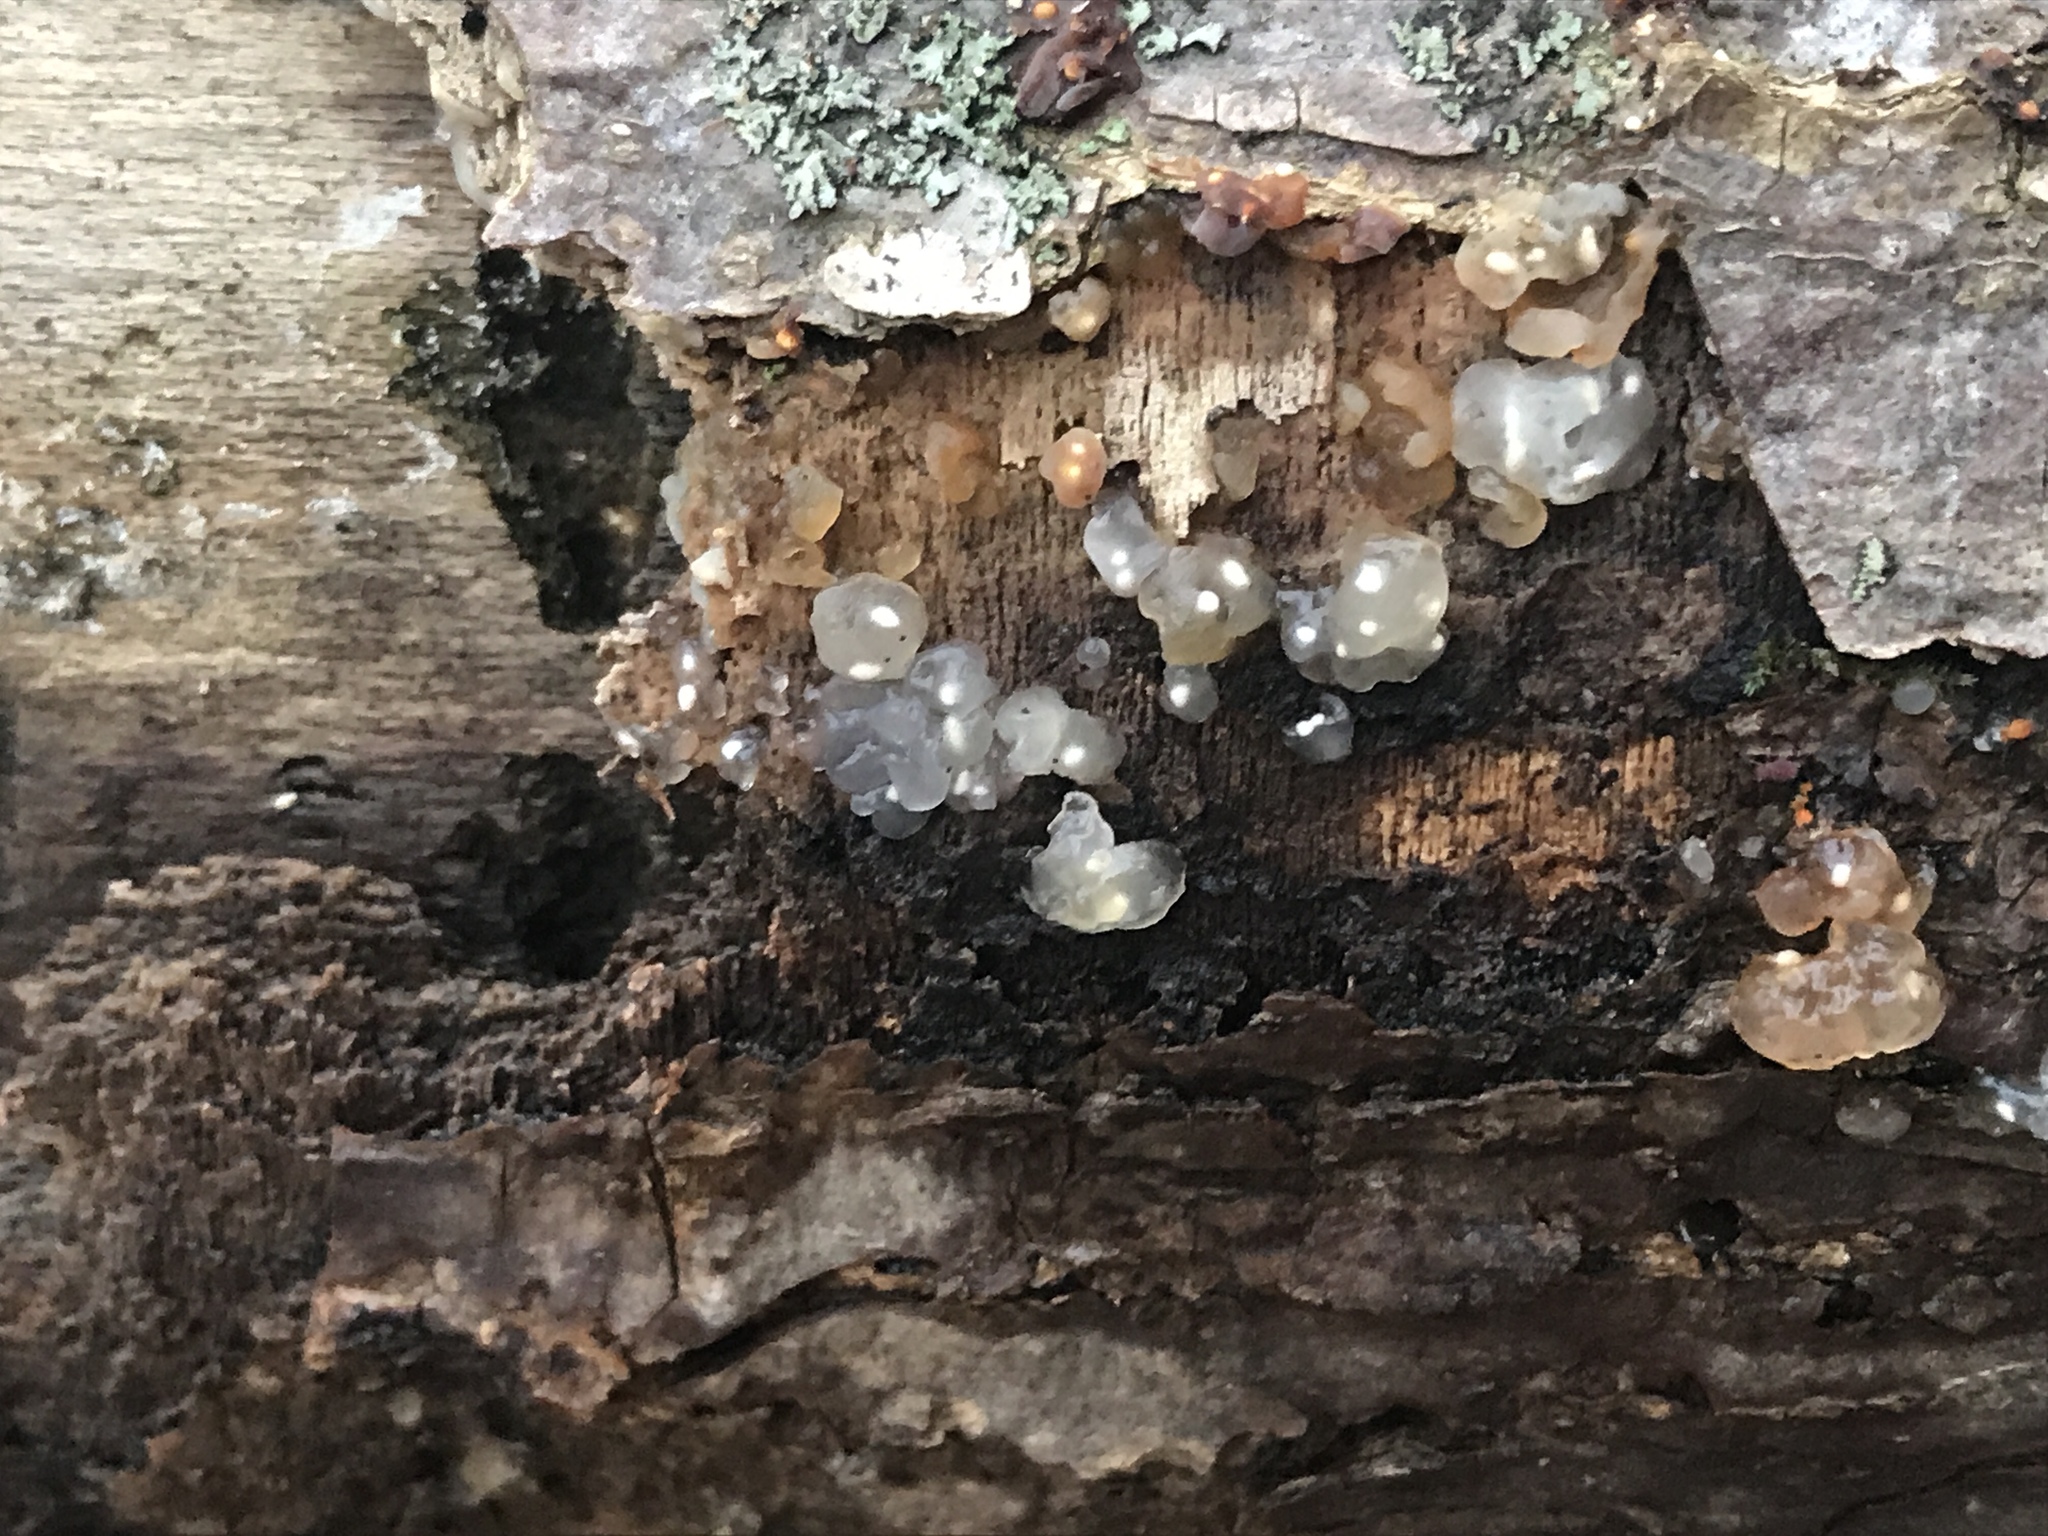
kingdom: Fungi
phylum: Basidiomycota
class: Agaricomycetes
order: Auriculariales
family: Hyaloriaceae
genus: Myxarium
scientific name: Myxarium nucleatum
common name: Crystal brain fungus
